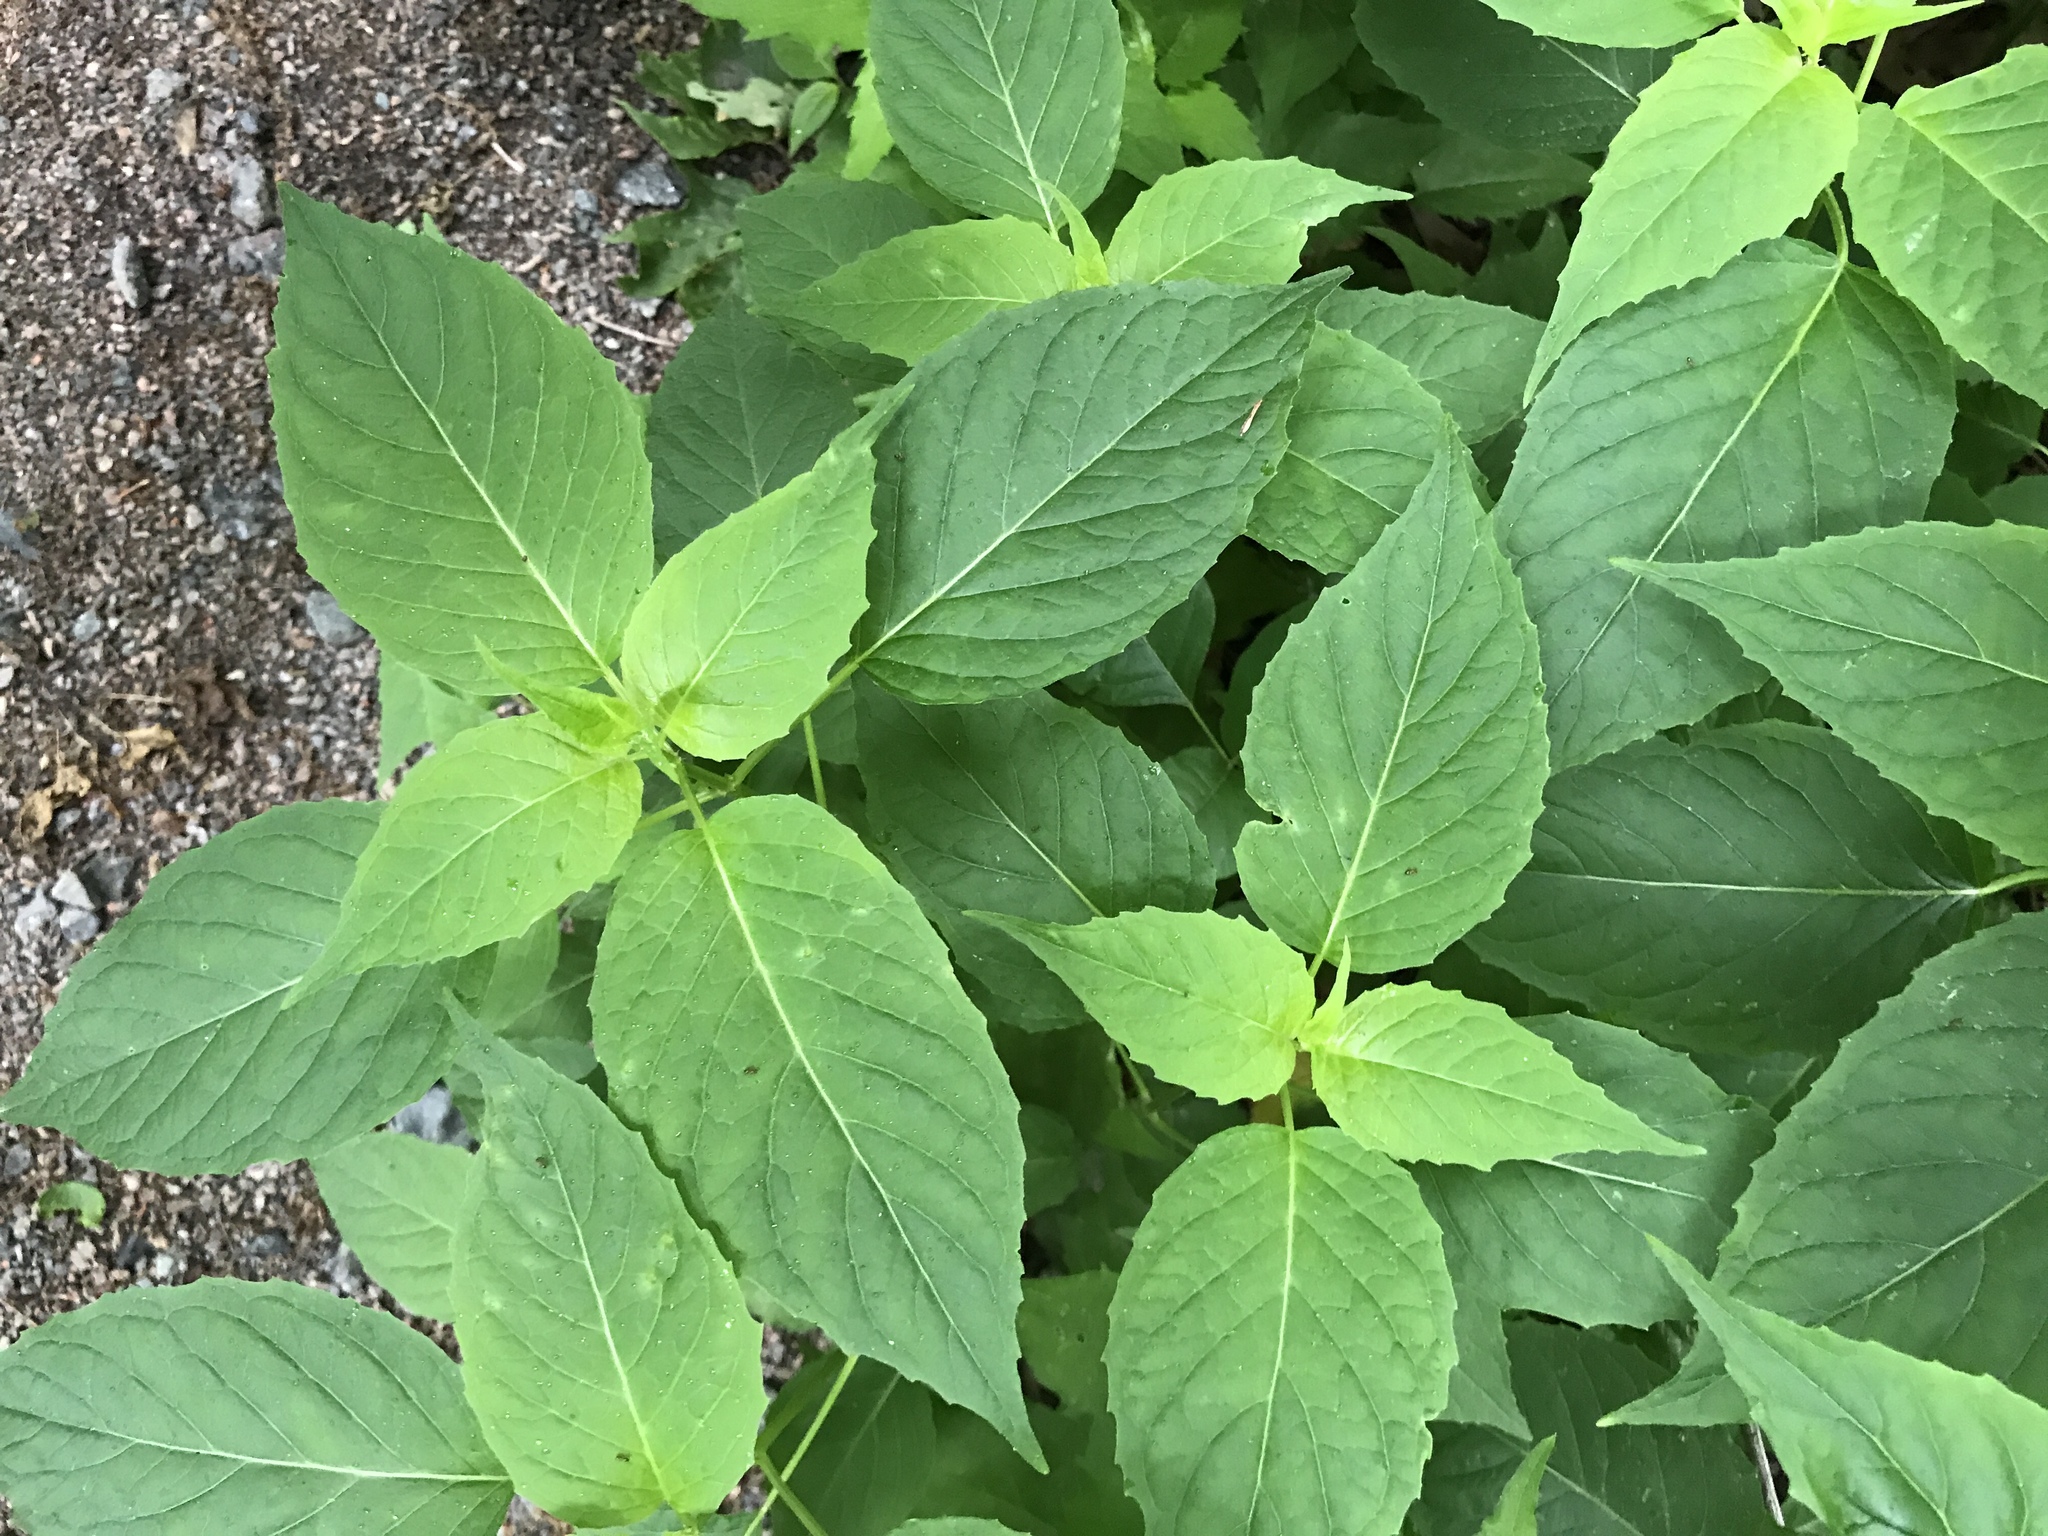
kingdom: Plantae
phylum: Tracheophyta
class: Magnoliopsida
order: Myrtales
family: Onagraceae
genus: Circaea
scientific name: Circaea canadensis
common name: Broad-leaved enchanter's nightshade
